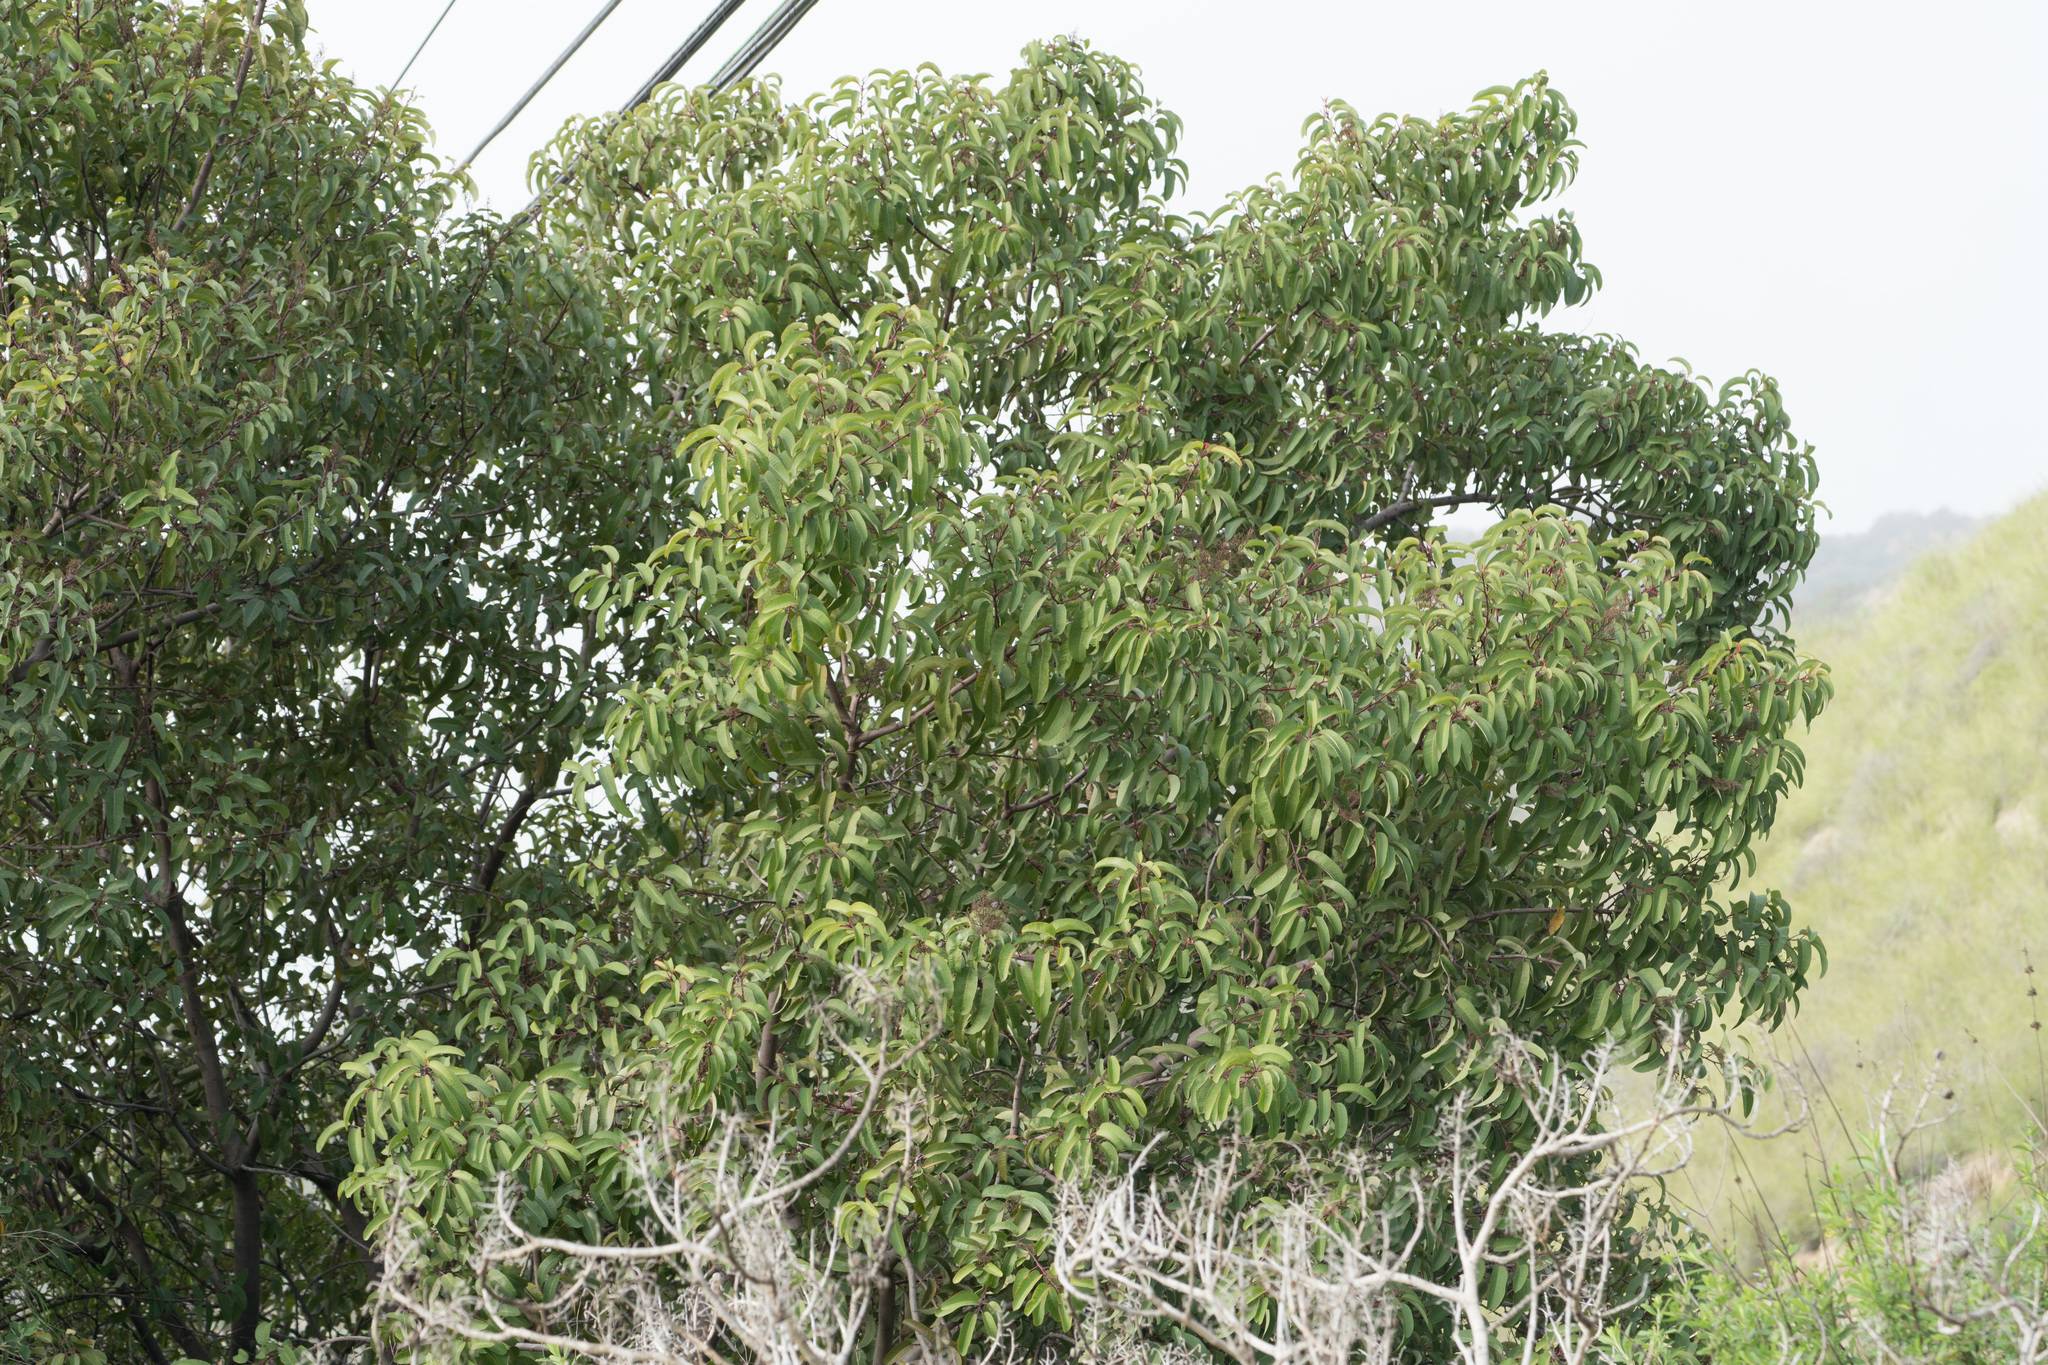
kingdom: Plantae
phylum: Tracheophyta
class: Magnoliopsida
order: Sapindales
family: Anacardiaceae
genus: Malosma
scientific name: Malosma laurina
